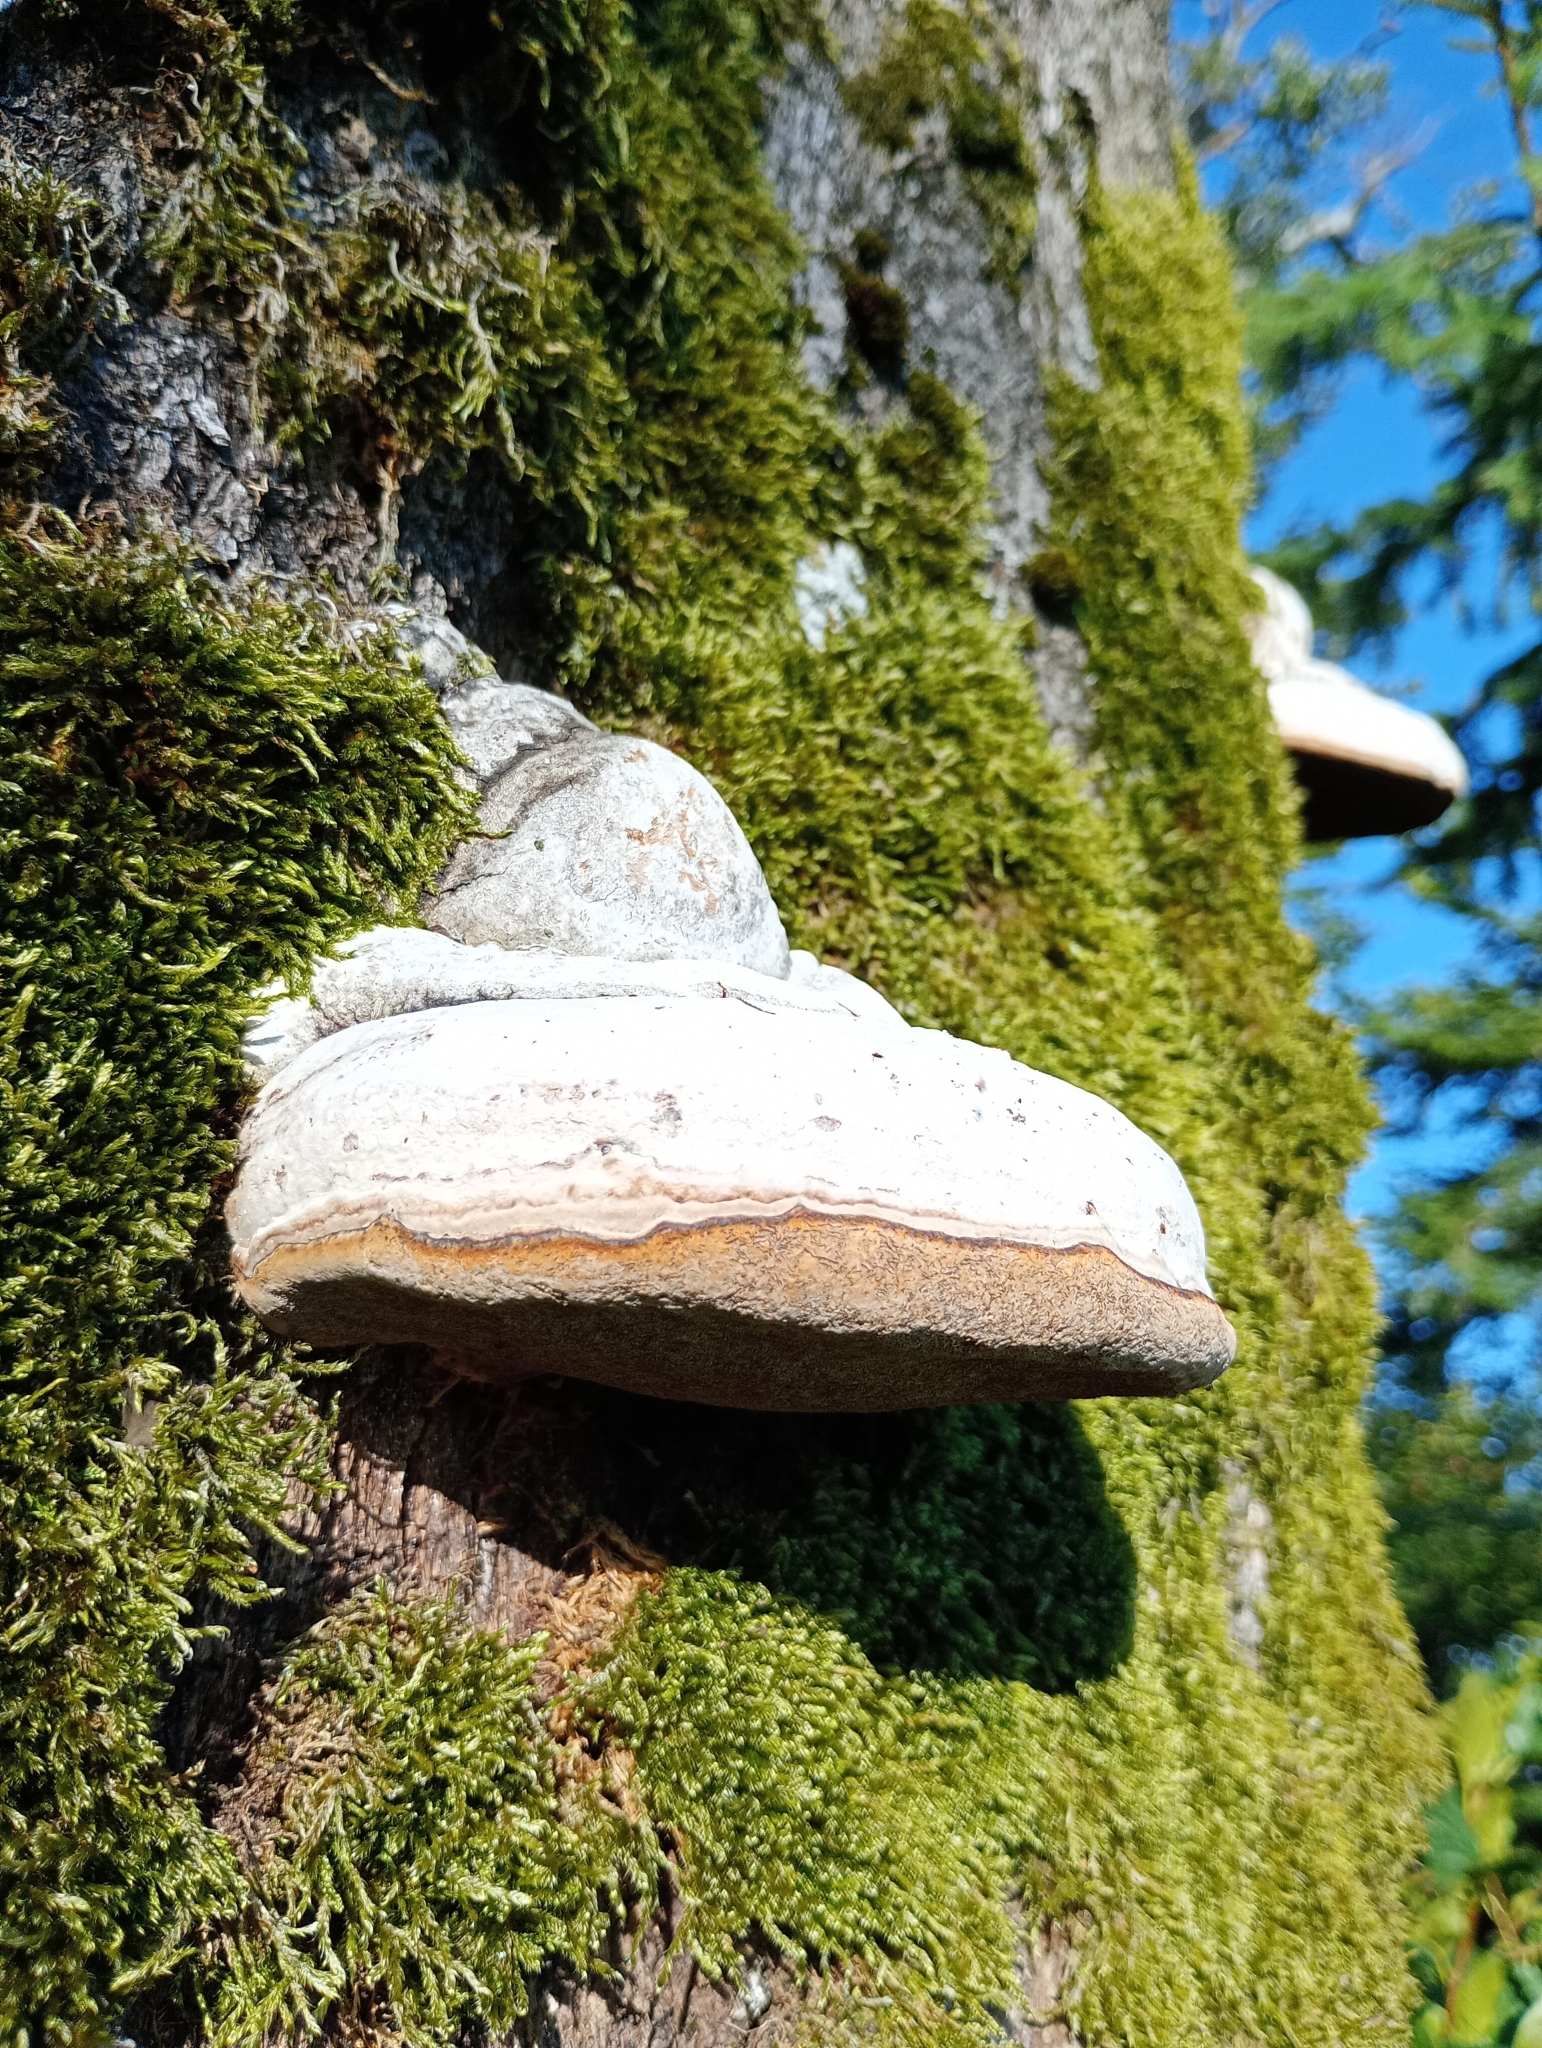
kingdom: Fungi
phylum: Basidiomycota
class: Agaricomycetes
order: Polyporales
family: Polyporaceae
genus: Fomes
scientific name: Fomes fomentarius
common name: Hoof fungus
